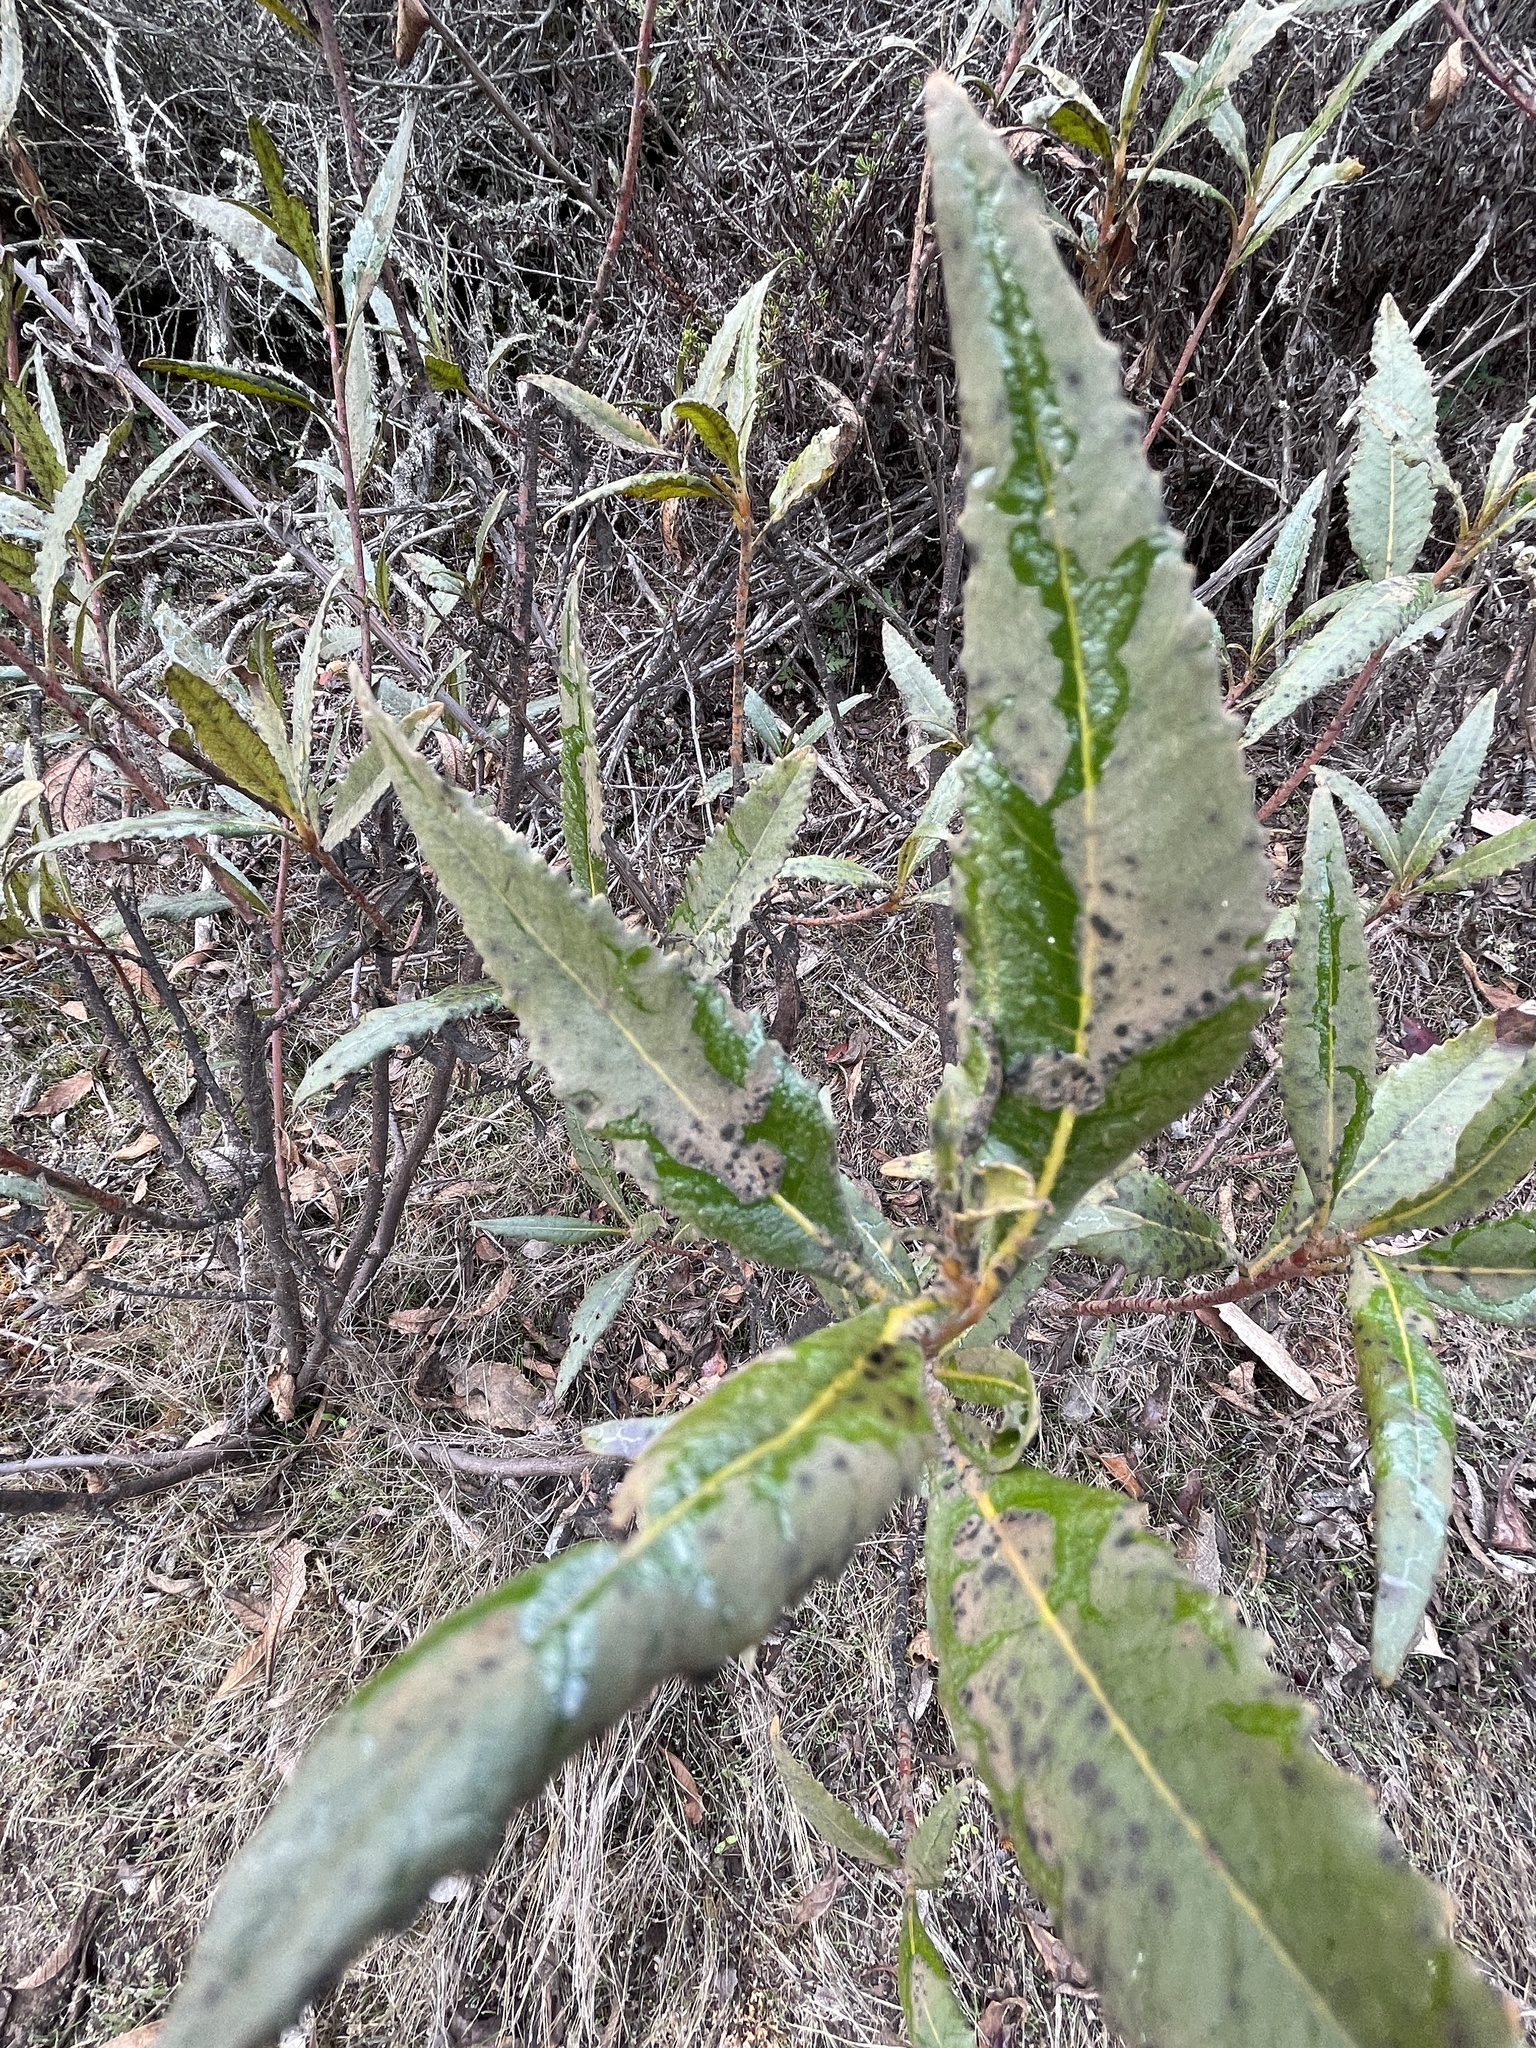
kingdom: Plantae
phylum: Tracheophyta
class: Magnoliopsida
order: Boraginales
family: Namaceae
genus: Eriodictyon
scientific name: Eriodictyon californicum
